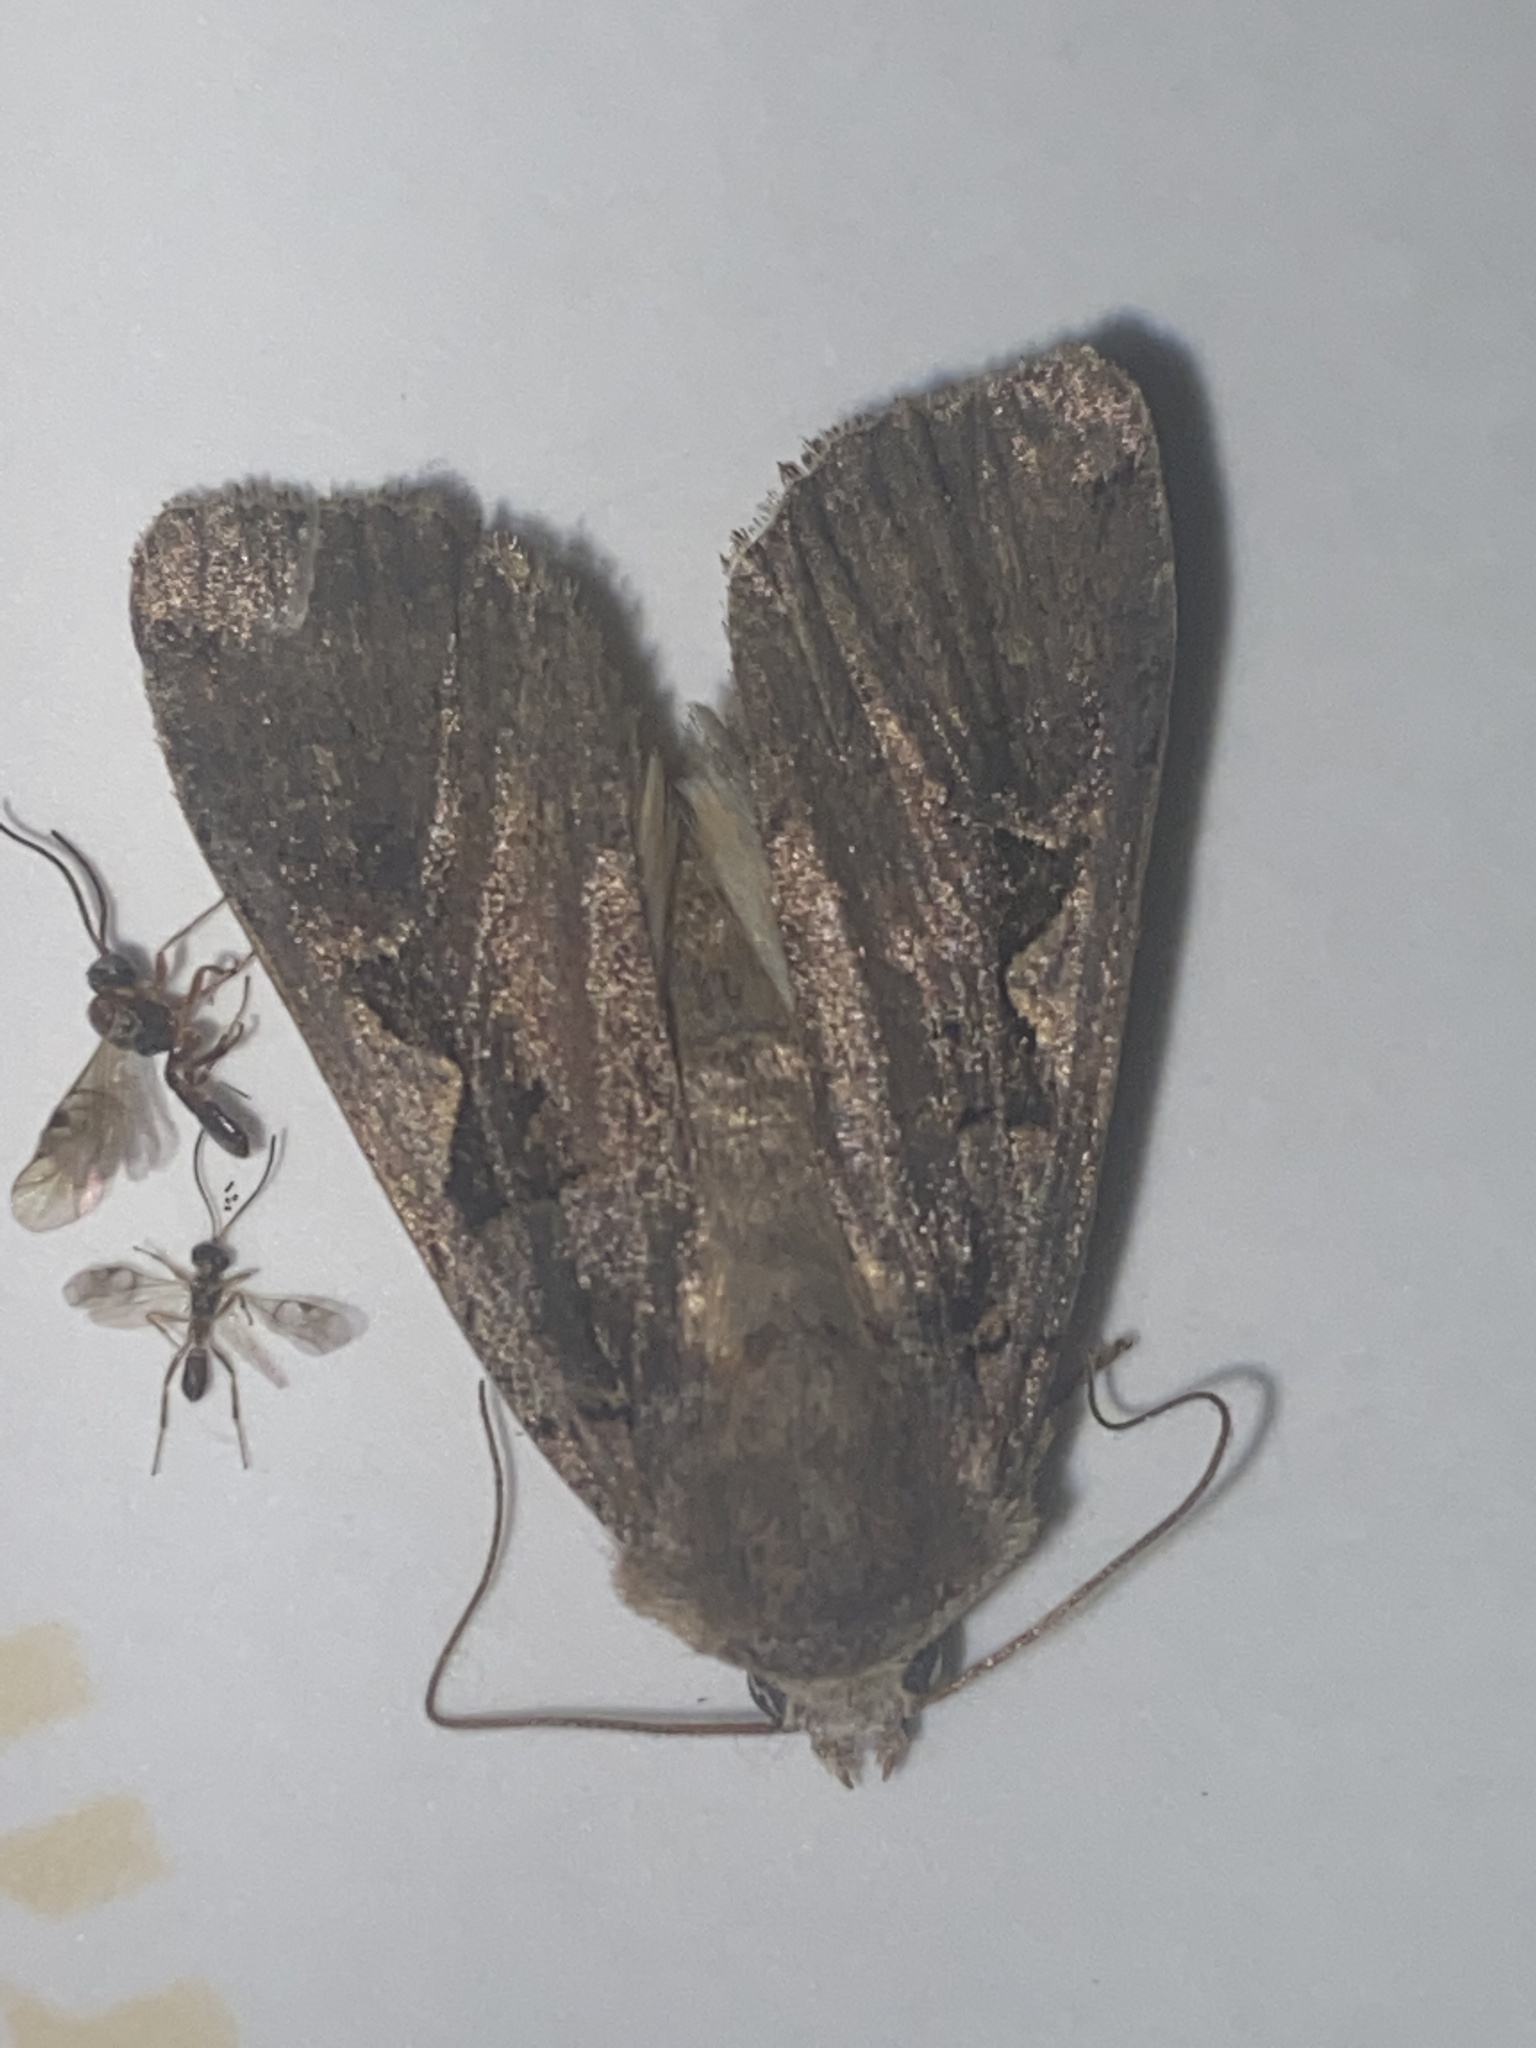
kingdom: Animalia
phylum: Arthropoda
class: Insecta
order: Lepidoptera
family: Noctuidae
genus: Xestia
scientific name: Xestia c-nigrum
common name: Setaceous hebrew character
